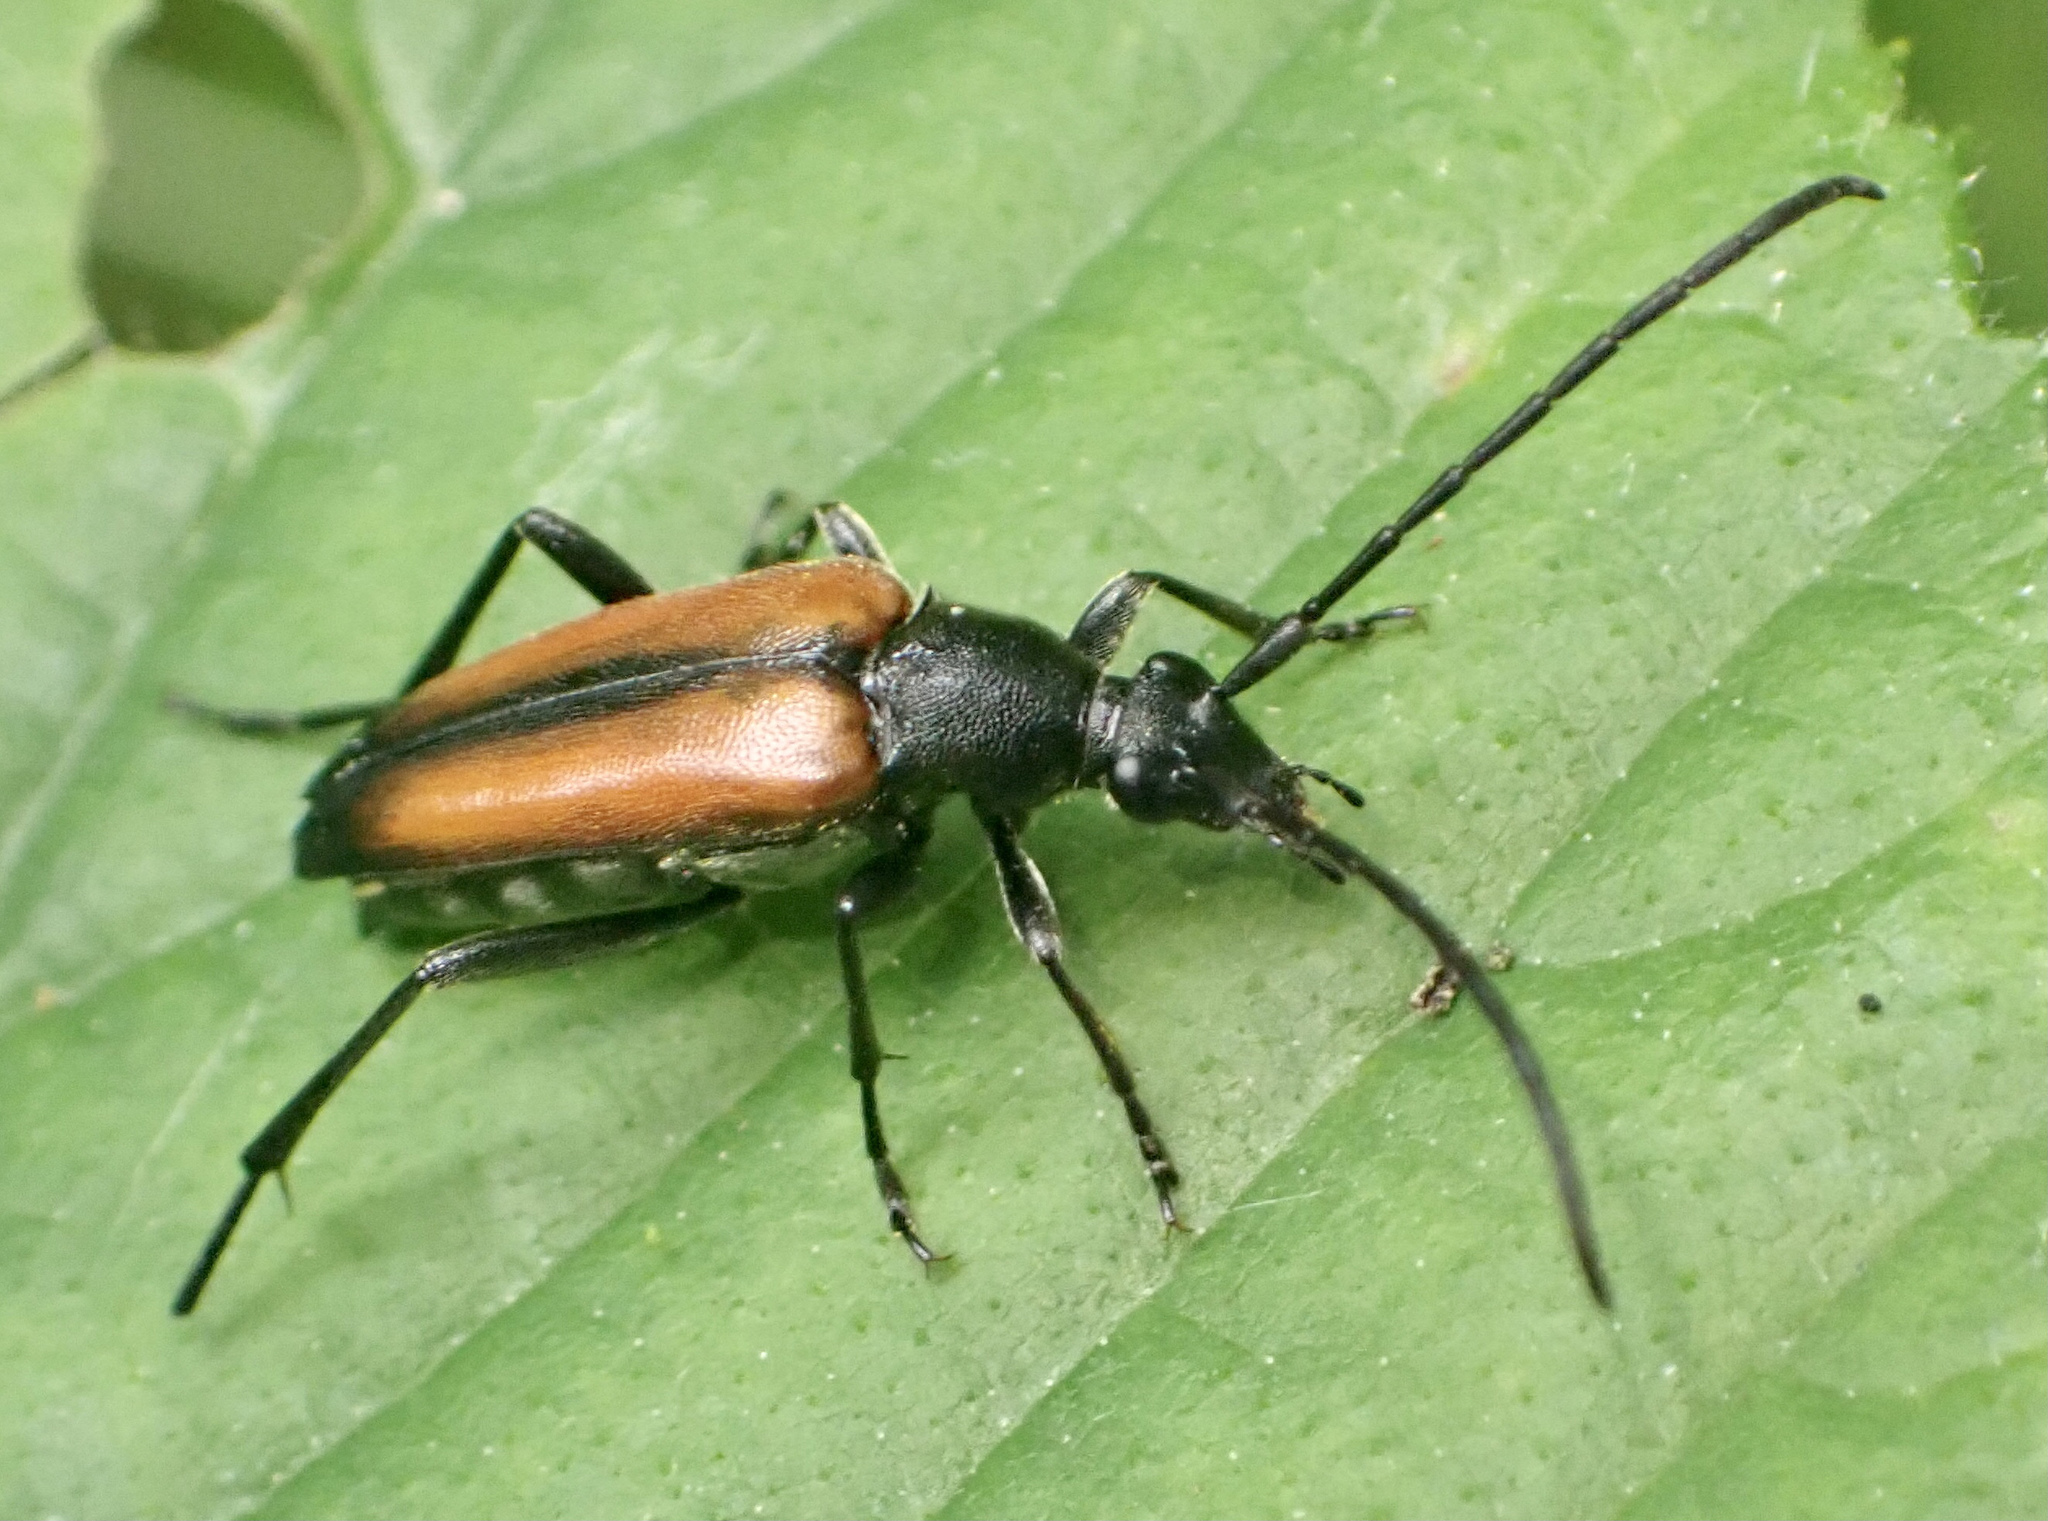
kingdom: Animalia
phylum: Arthropoda
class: Insecta
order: Coleoptera
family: Cerambycidae
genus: Stenurella
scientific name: Stenurella melanura
